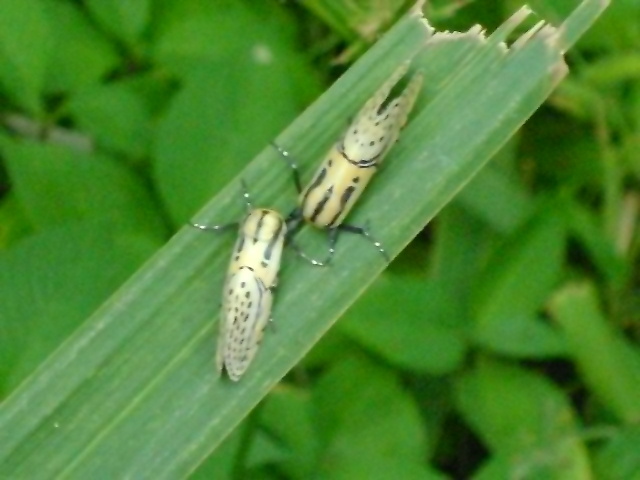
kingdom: Animalia
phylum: Arthropoda
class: Insecta
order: Lepidoptera
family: Erebidae
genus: Diphthera
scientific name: Diphthera festiva
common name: Hieroglyphic moth
